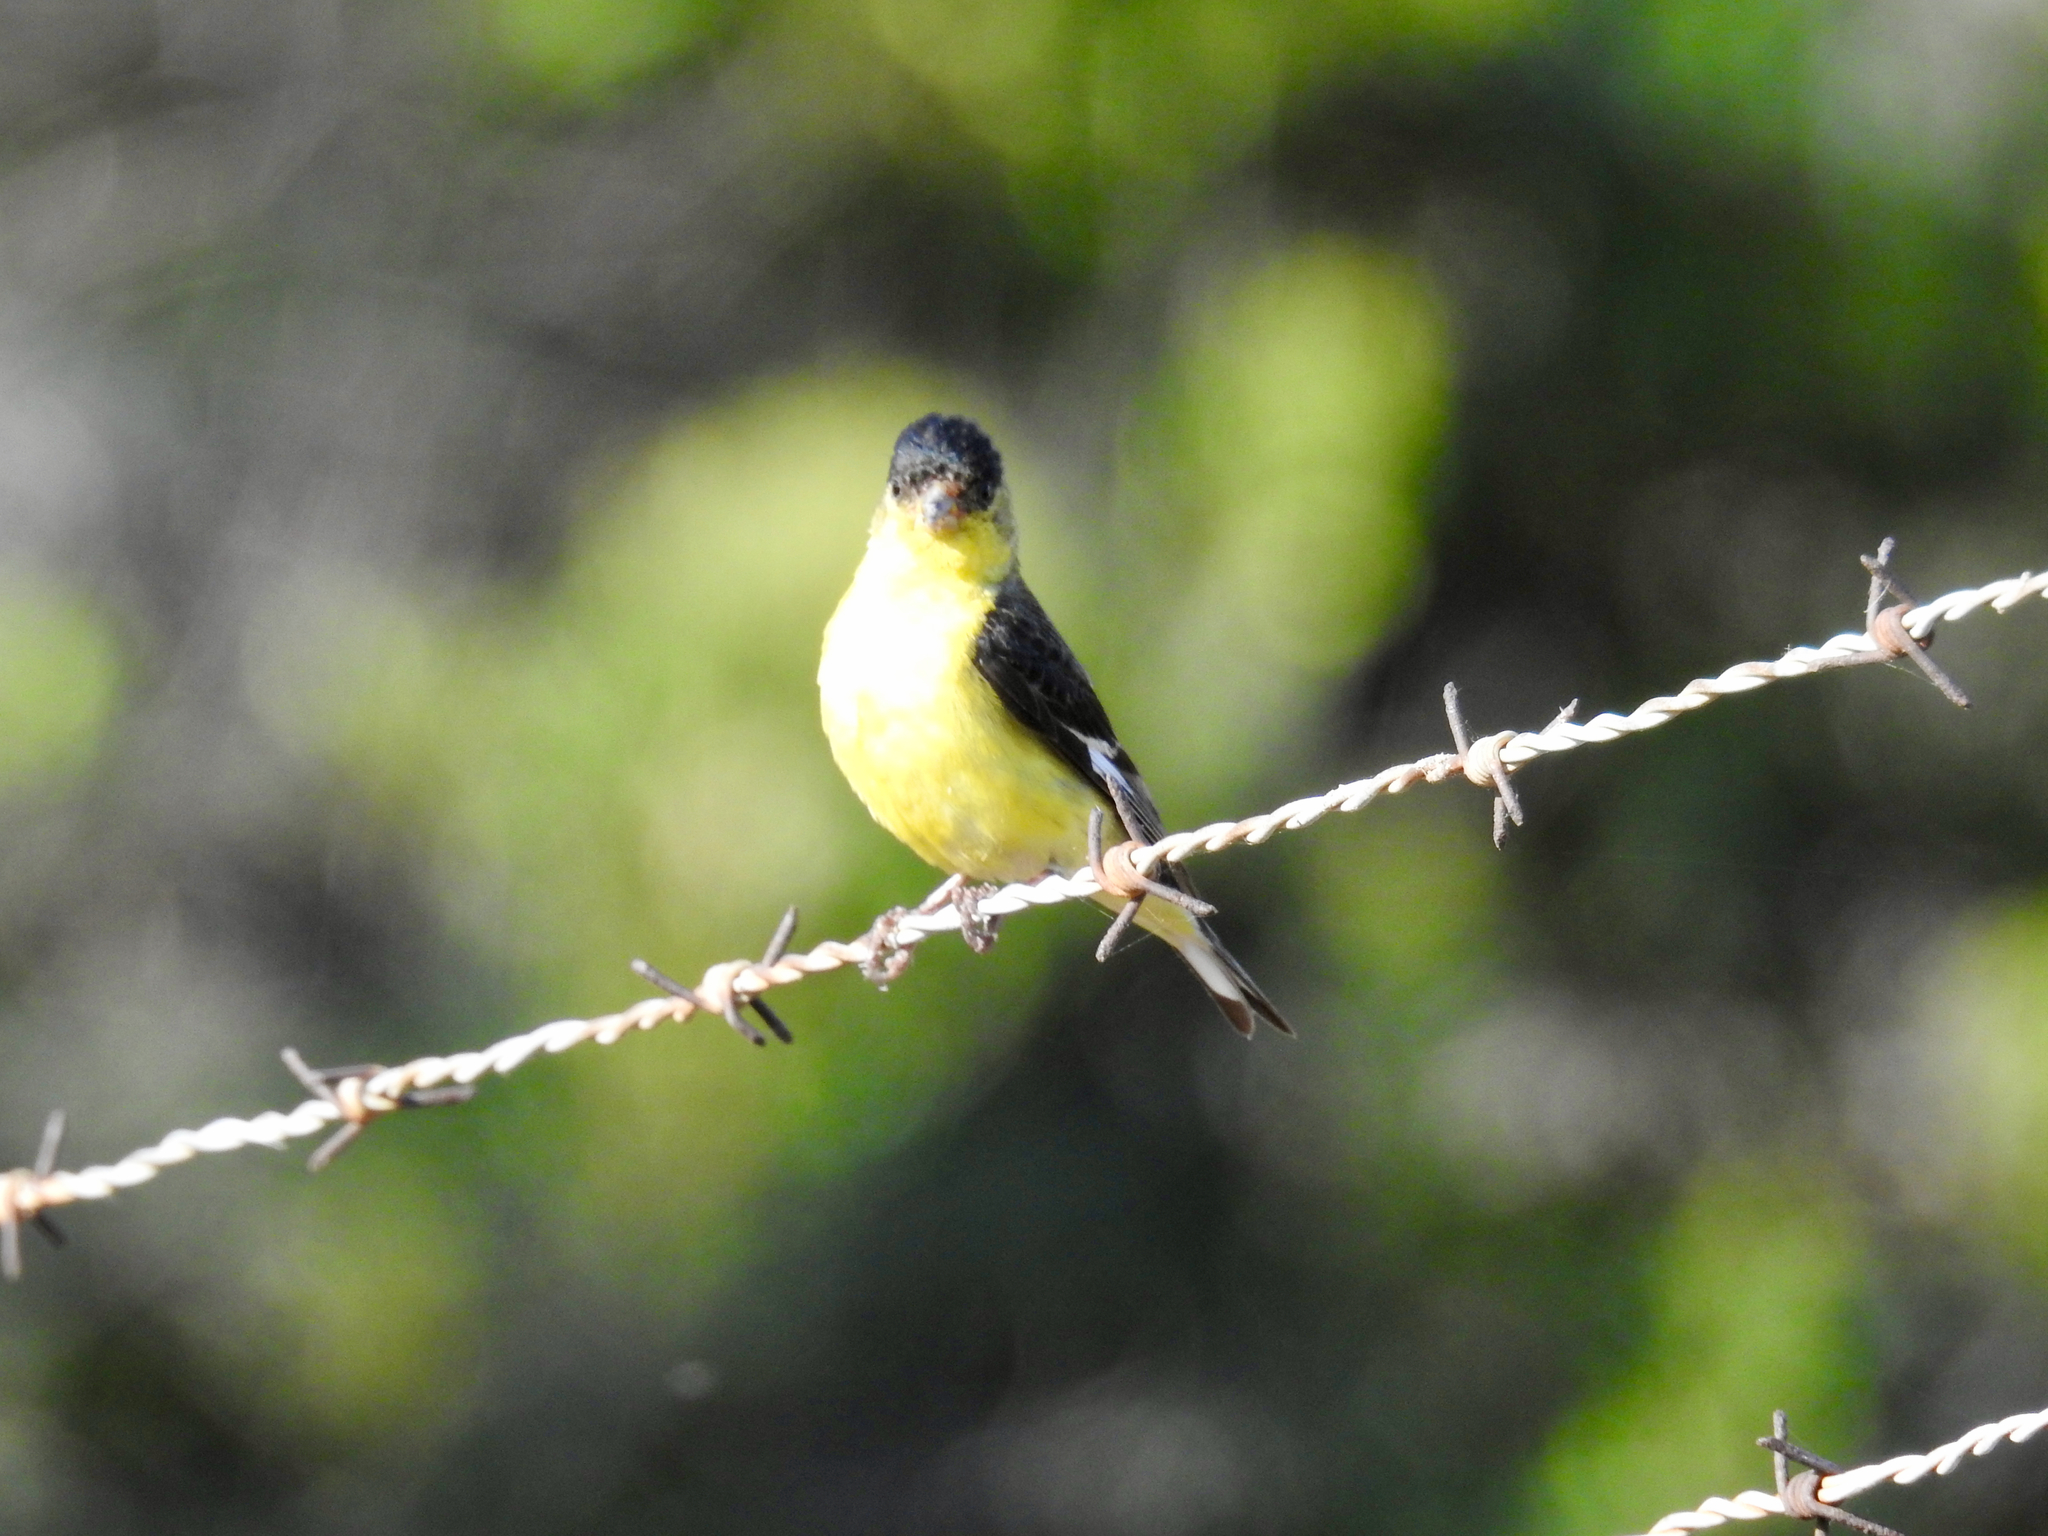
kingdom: Animalia
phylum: Chordata
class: Aves
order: Passeriformes
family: Fringillidae
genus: Spinus
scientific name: Spinus psaltria
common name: Lesser goldfinch
